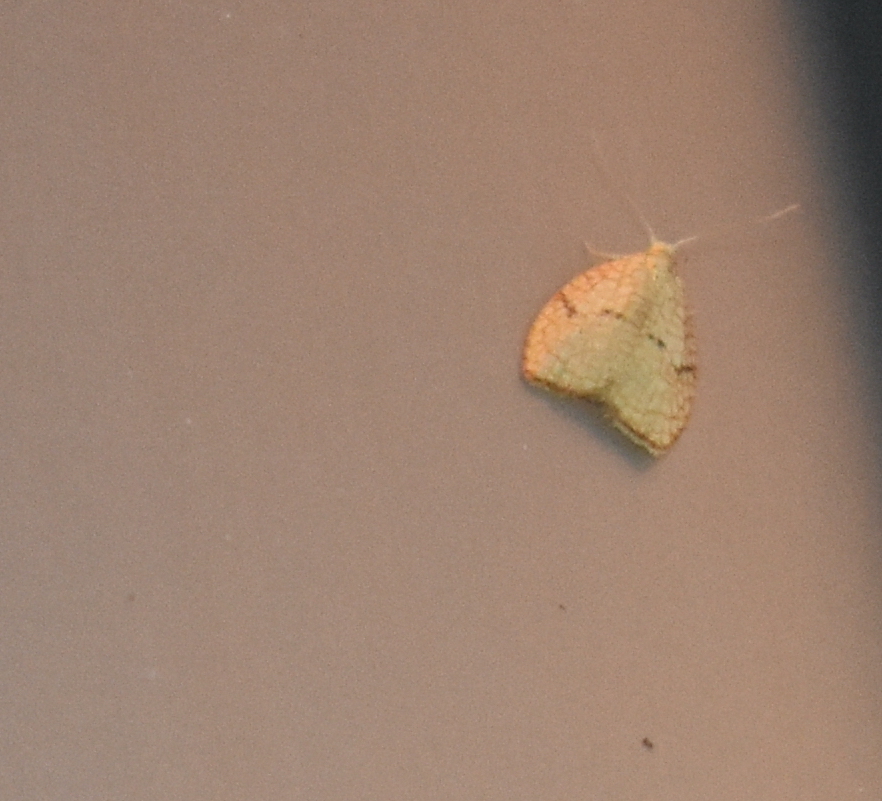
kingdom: Animalia
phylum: Arthropoda
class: Insecta
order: Lepidoptera
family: Tortricidae
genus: Acleris
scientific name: Acleris forsskaleana
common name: Maple button
